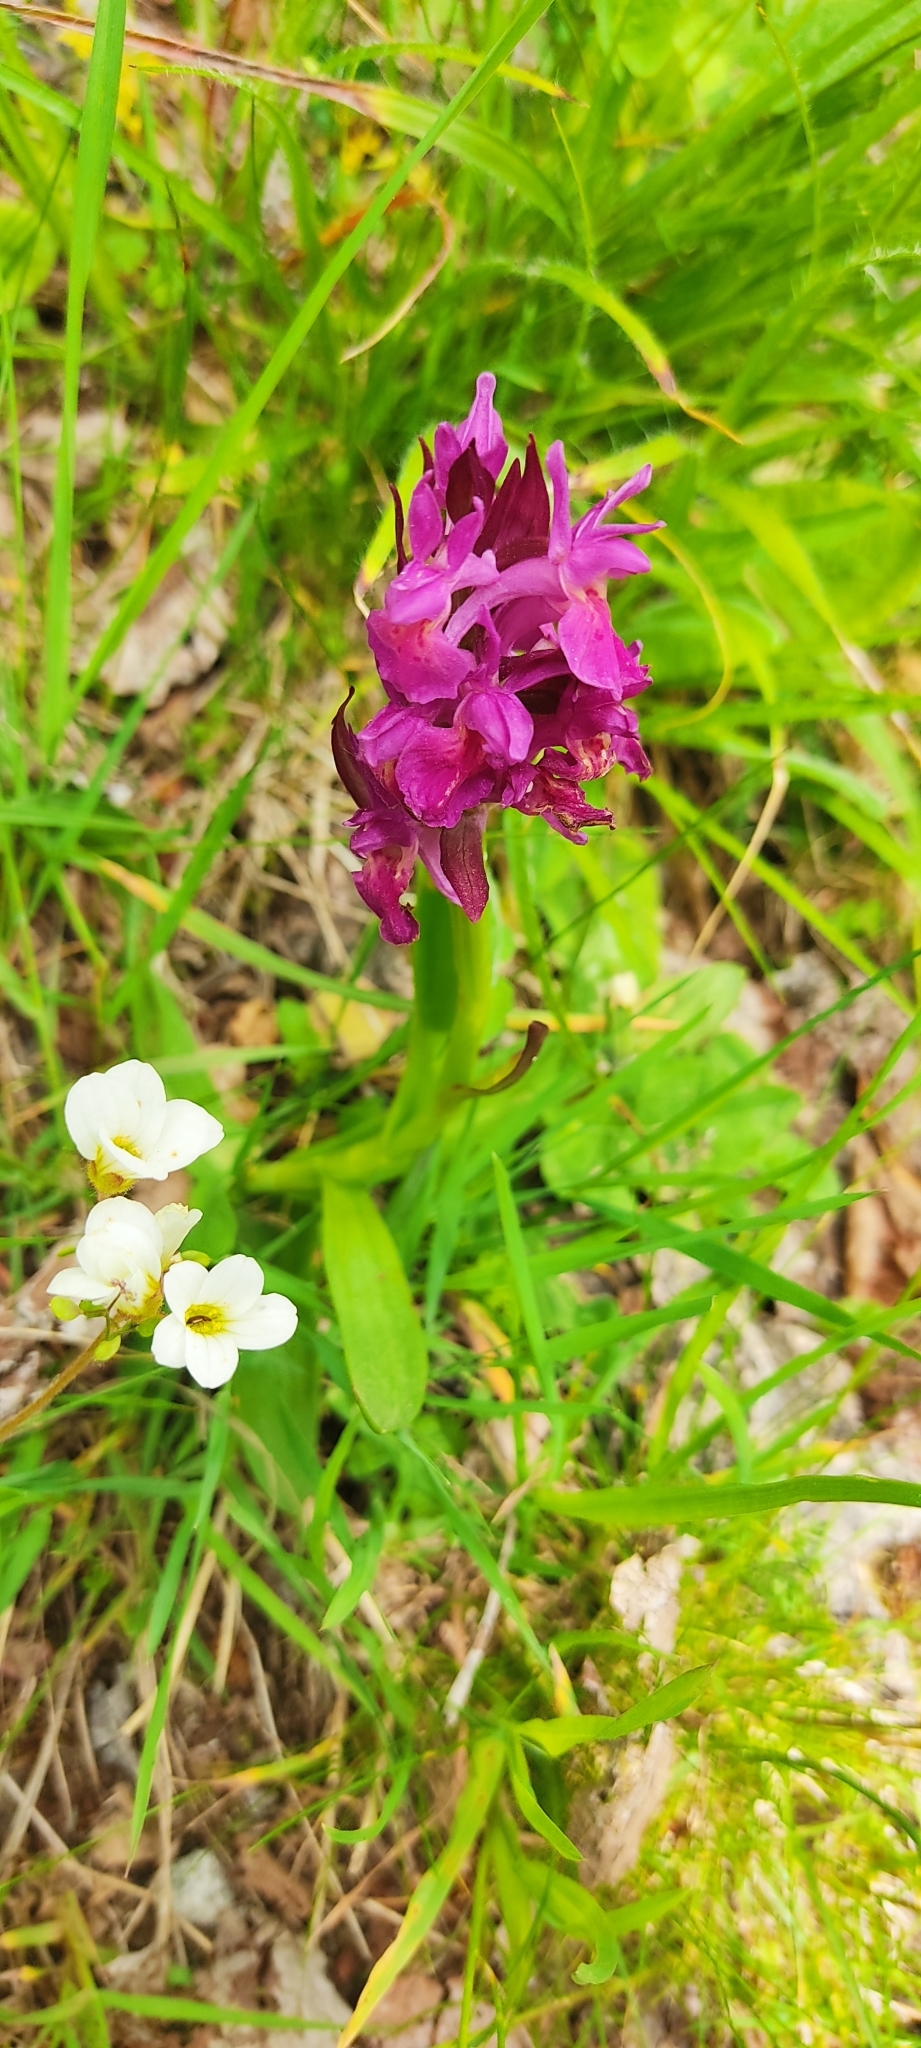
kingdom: Plantae
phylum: Tracheophyta
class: Liliopsida
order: Asparagales
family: Orchidaceae
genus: Dactylorhiza
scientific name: Dactylorhiza sambucina
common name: Elder-flowered orchid
